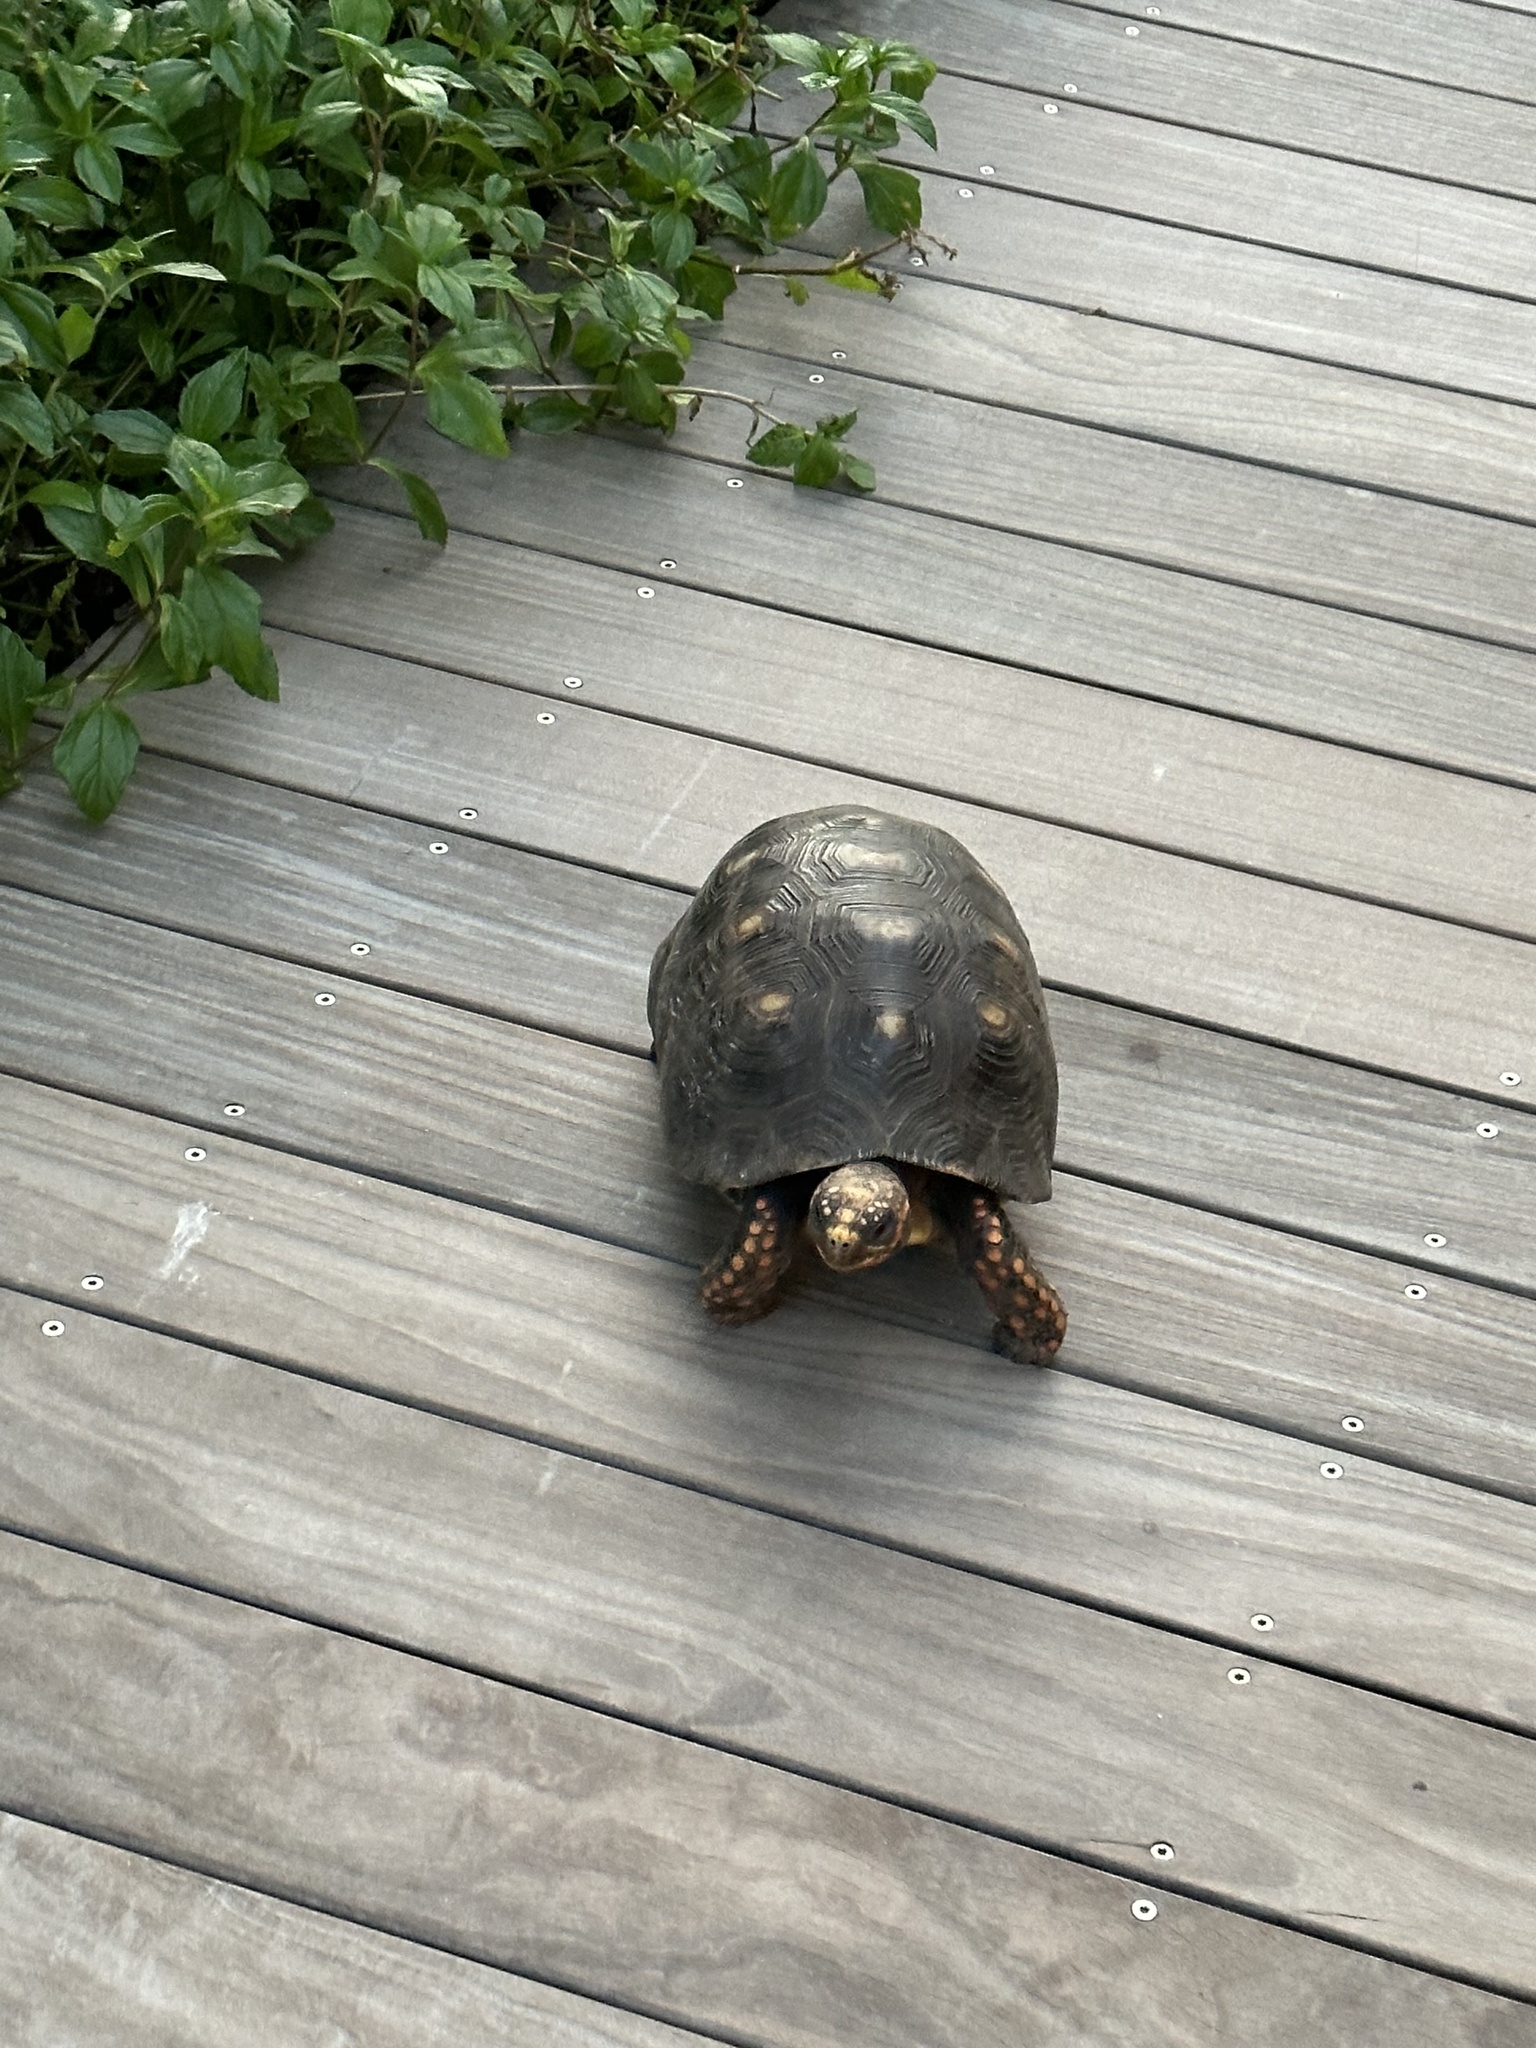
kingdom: Animalia
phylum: Chordata
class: Testudines
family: Testudinidae
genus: Chelonoidis
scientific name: Chelonoidis carbonarius
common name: Red-footed tortoise
